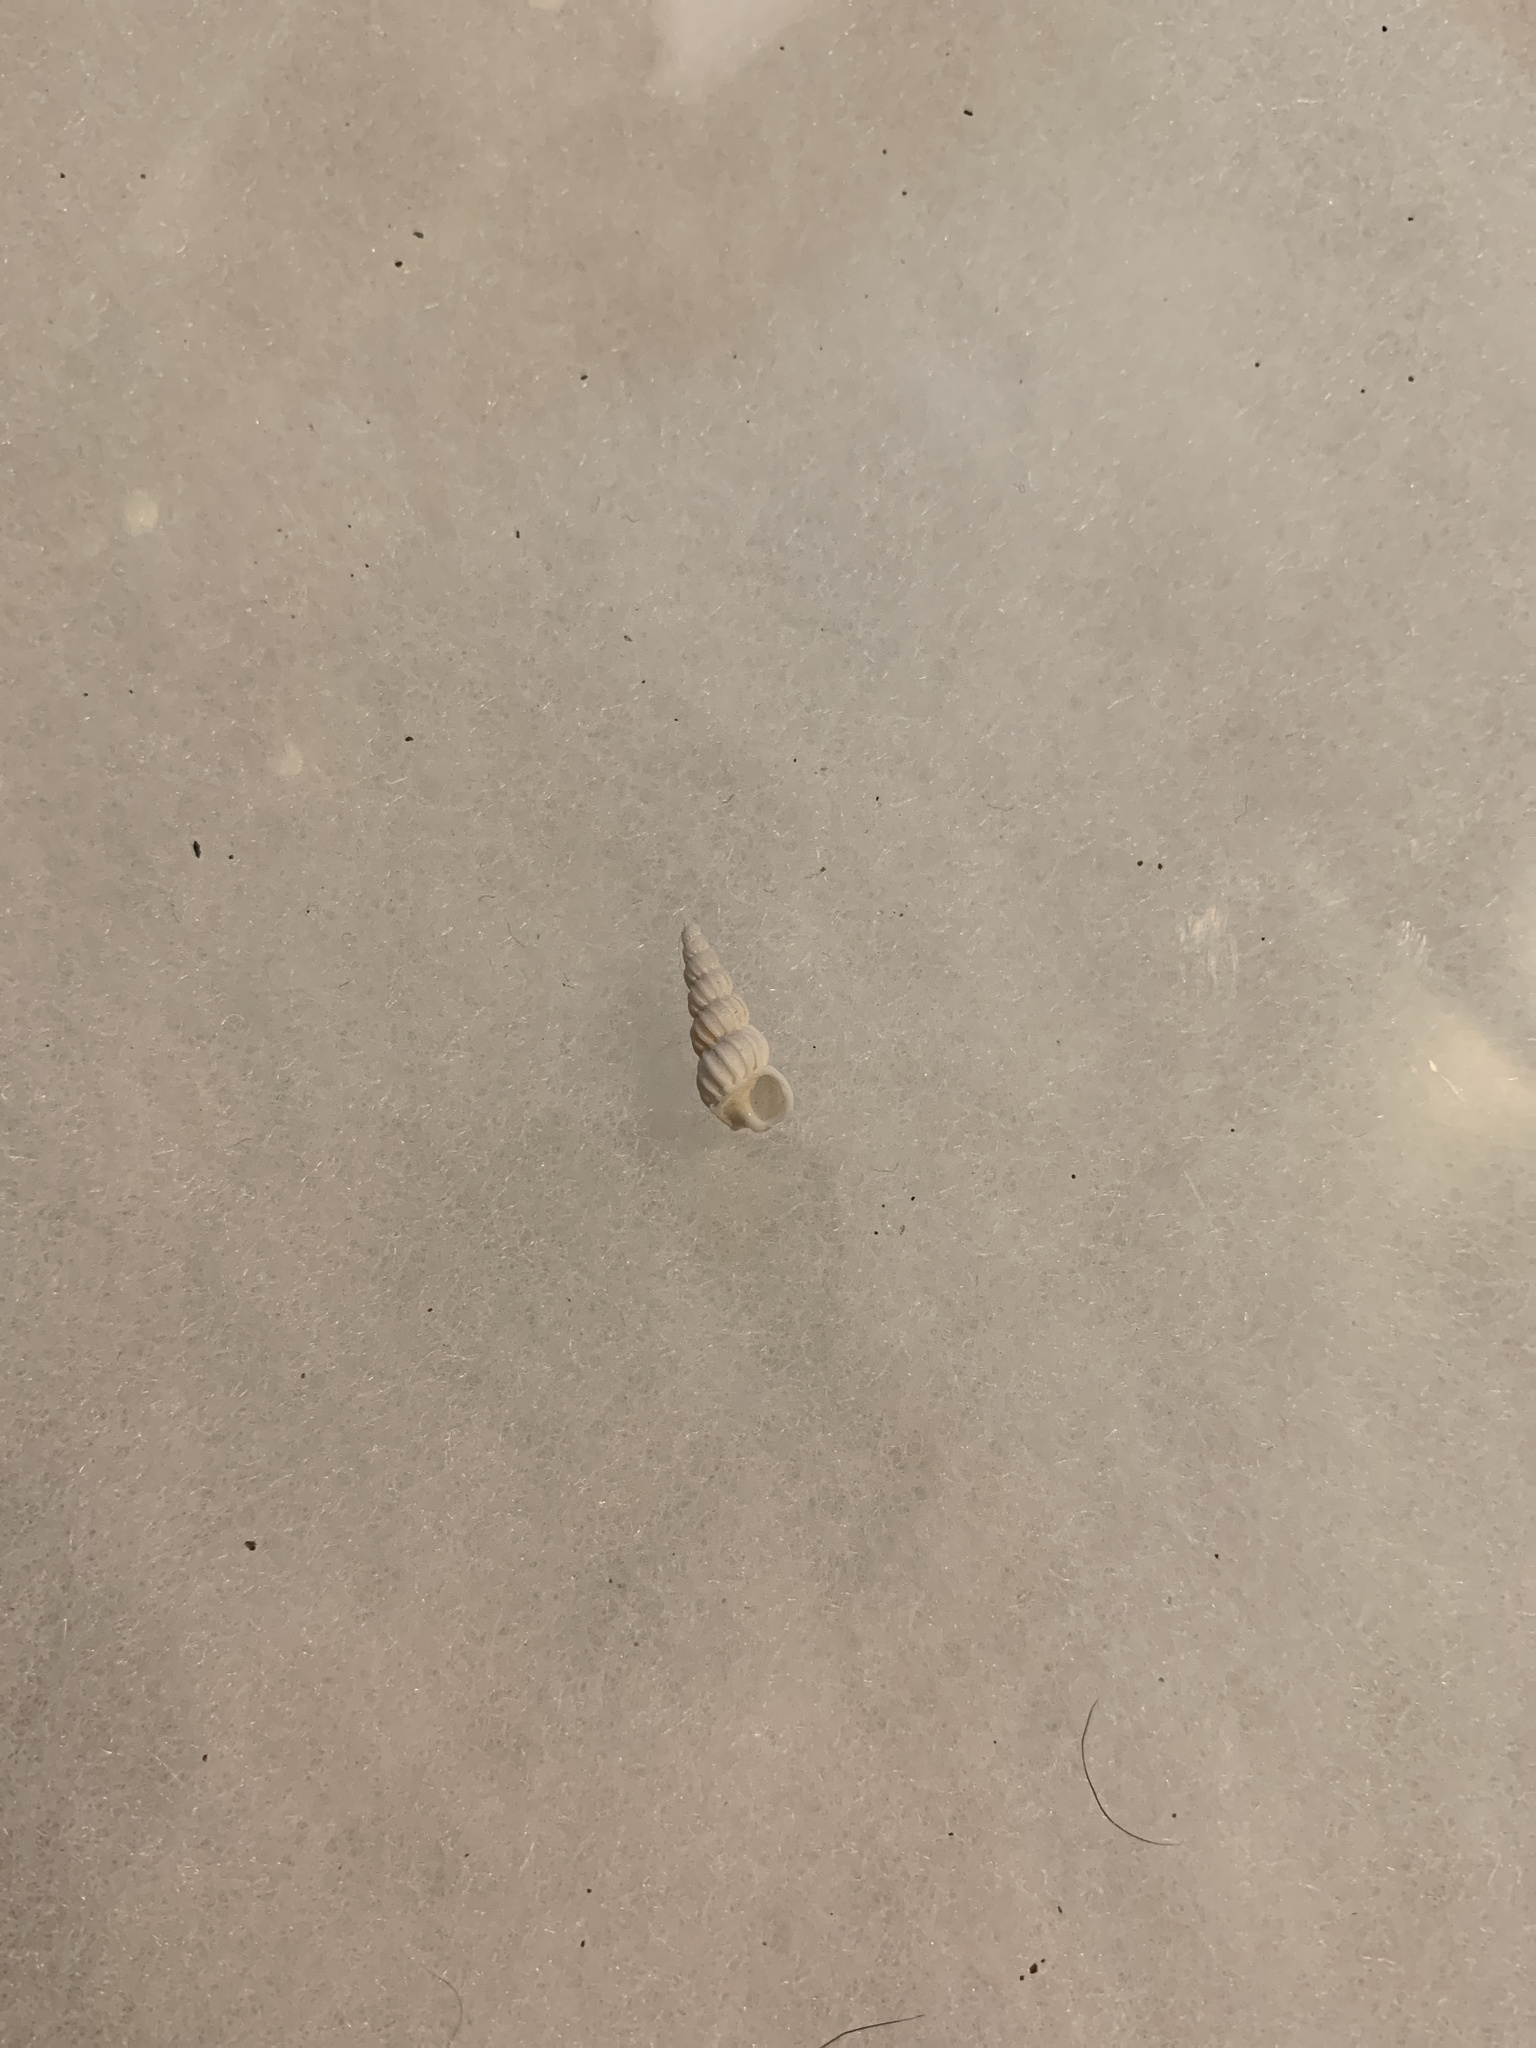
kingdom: Animalia
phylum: Mollusca
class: Gastropoda
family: Epitoniidae
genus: Epitonium
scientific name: Epitonium tinctum
